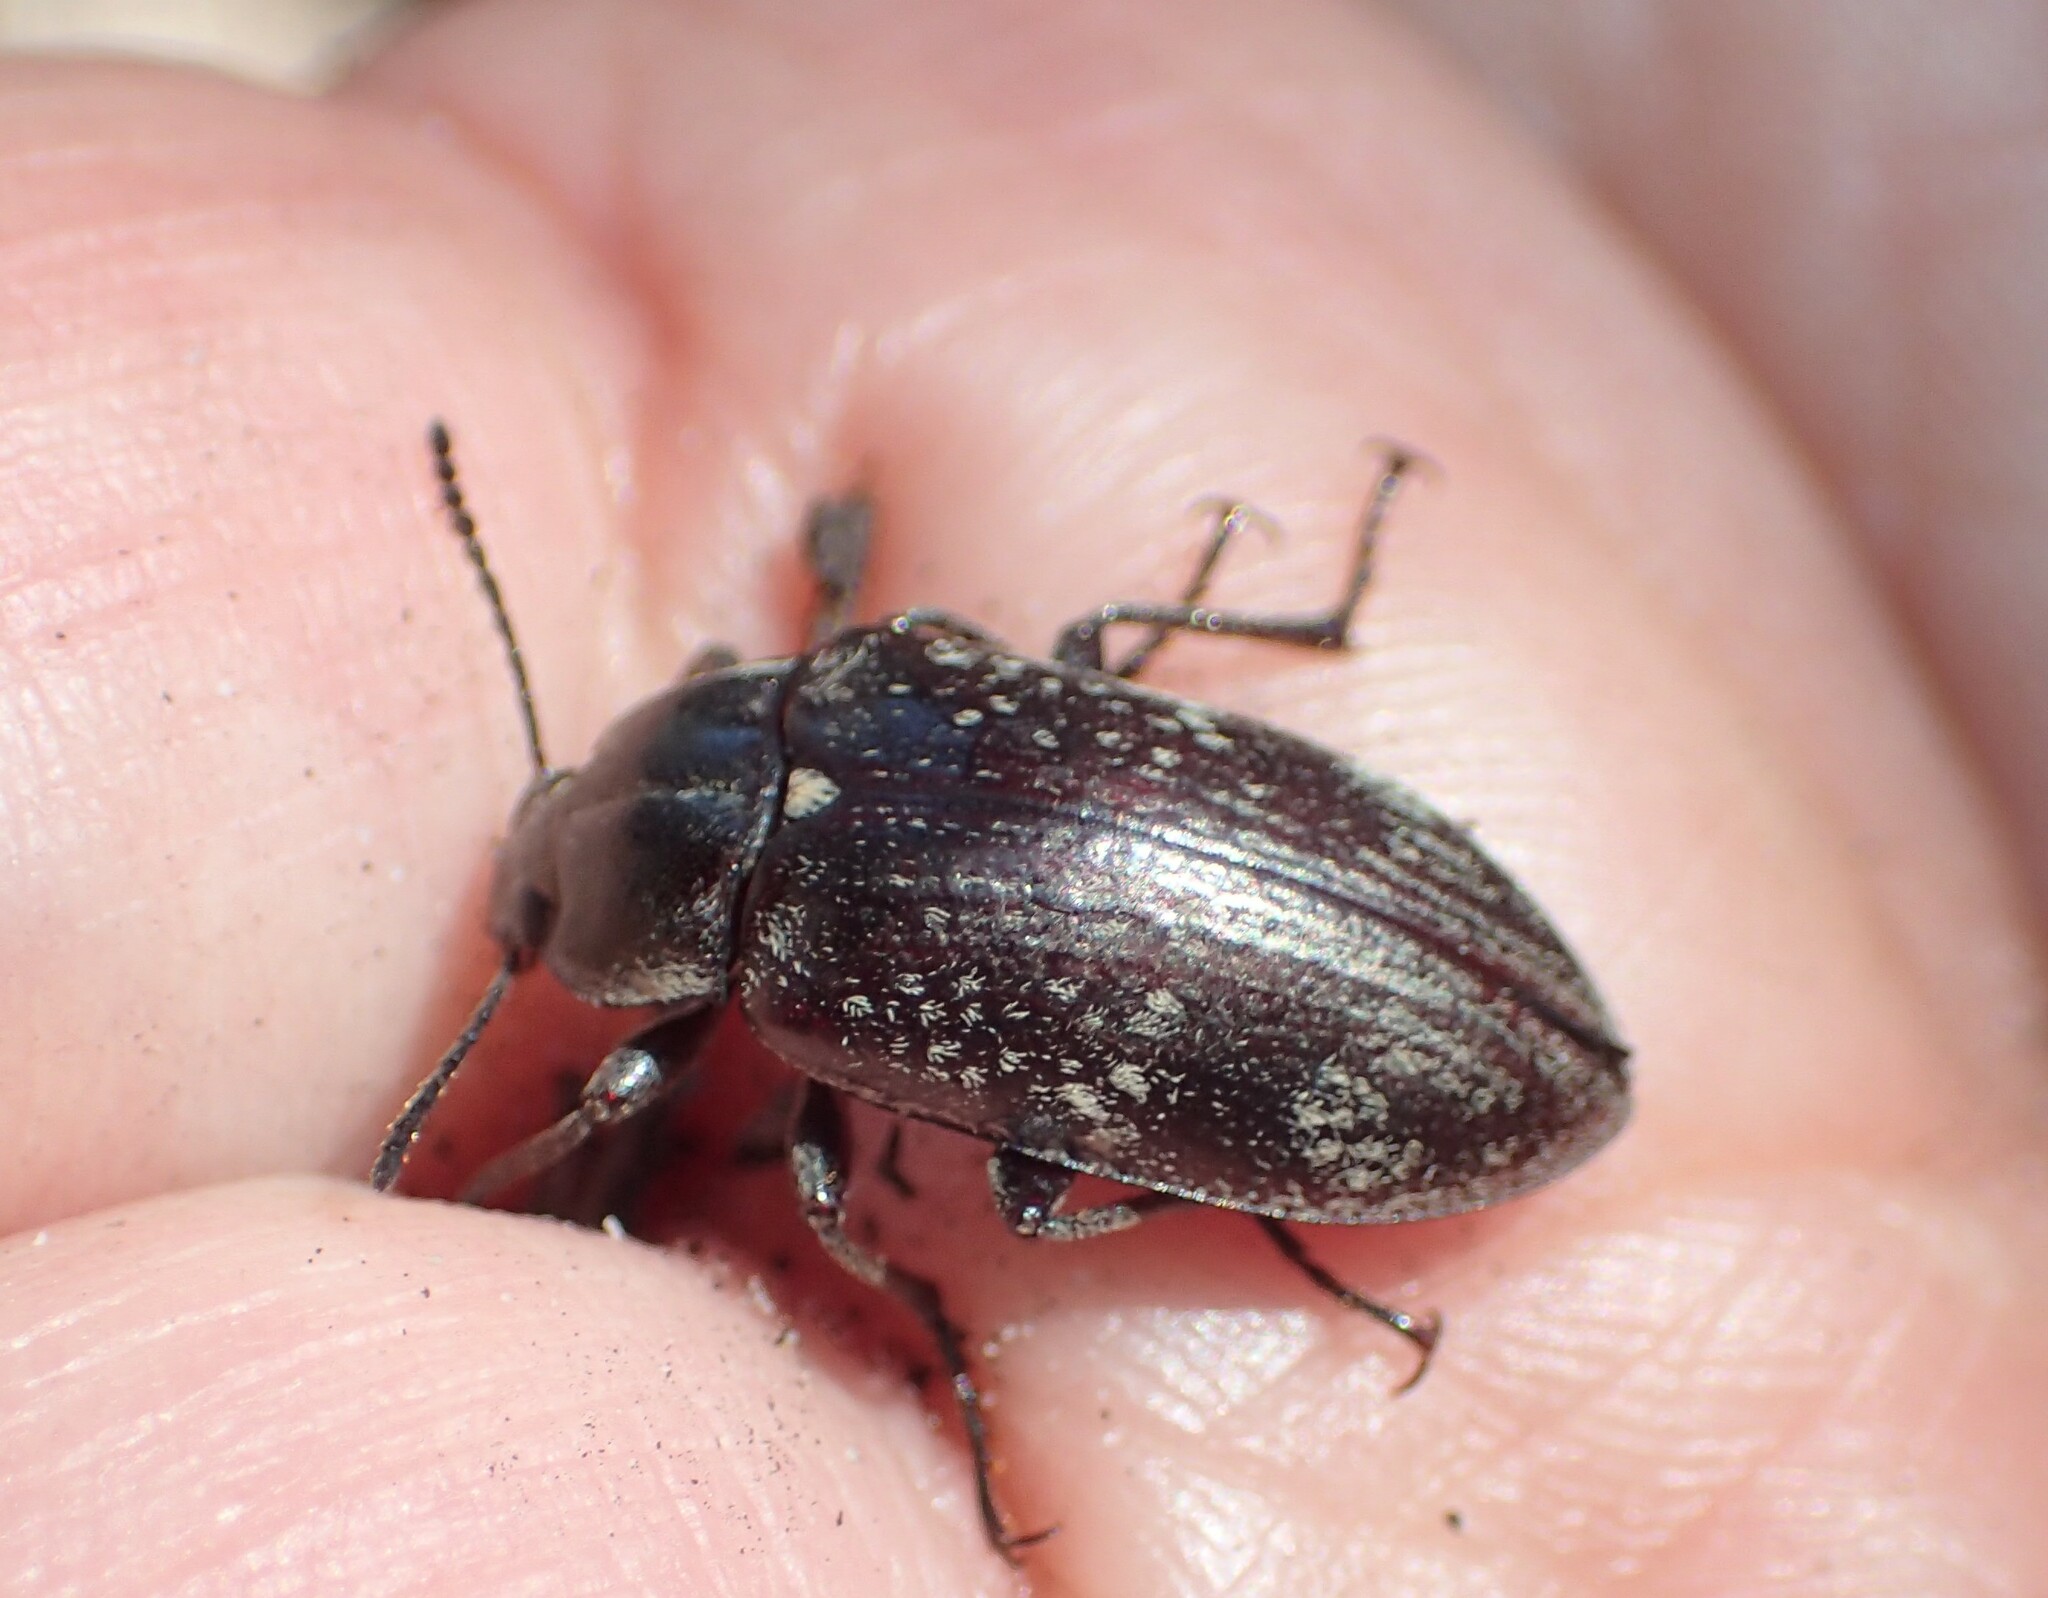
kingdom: Animalia
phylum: Arthropoda
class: Insecta
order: Coleoptera
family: Tenebrionidae
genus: Pachycoelia
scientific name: Pachycoelia
